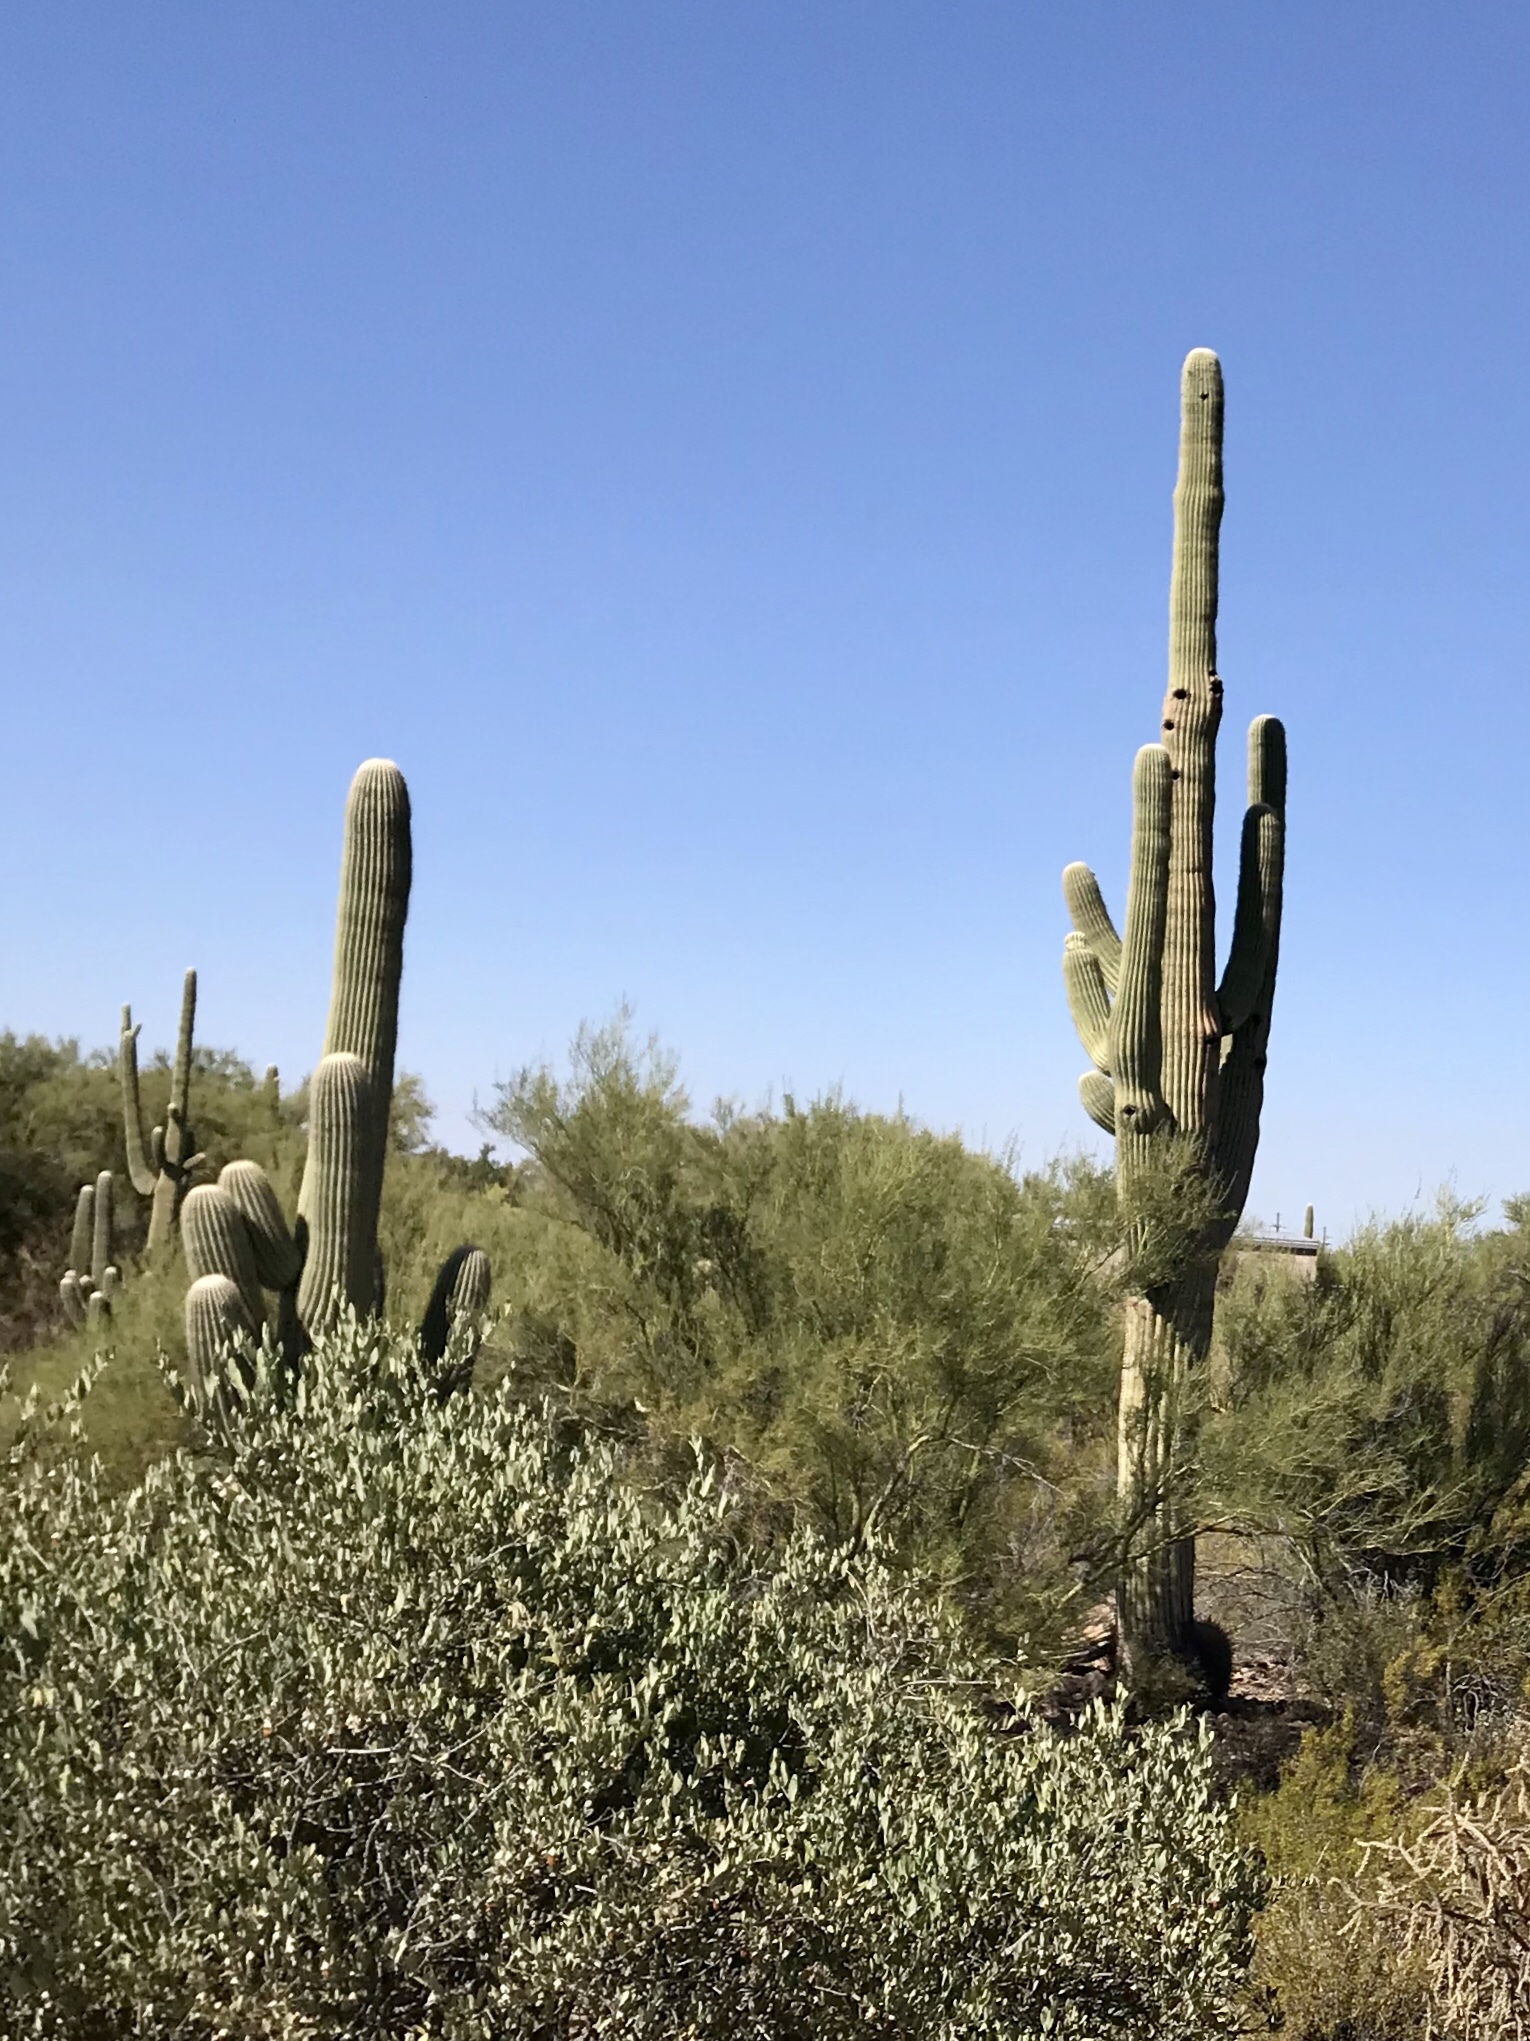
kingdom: Plantae
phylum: Tracheophyta
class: Magnoliopsida
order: Caryophyllales
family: Cactaceae
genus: Carnegiea
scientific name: Carnegiea gigantea
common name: Saguaro
